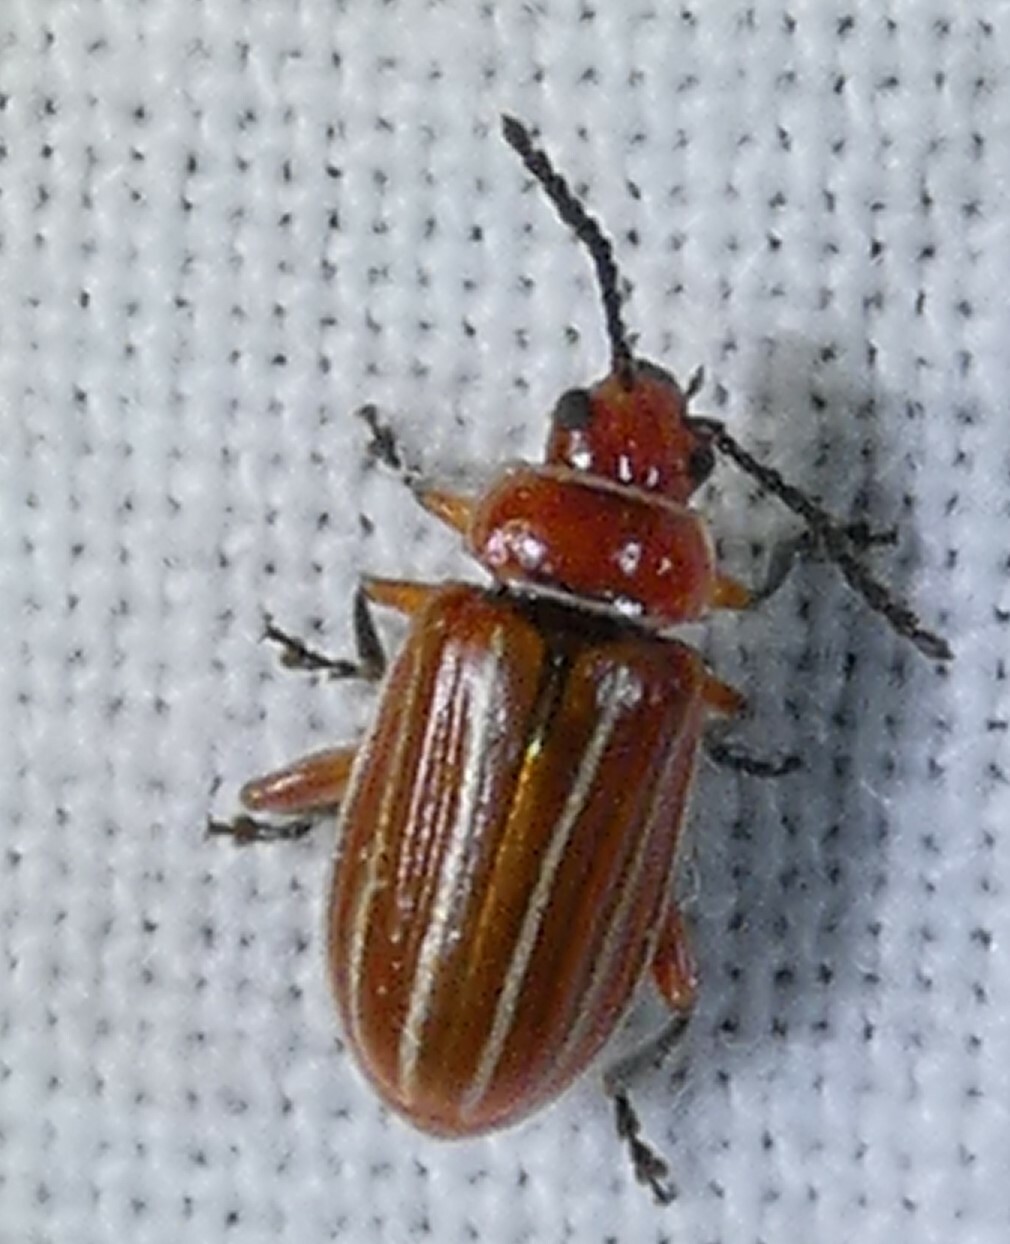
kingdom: Animalia
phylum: Arthropoda
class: Insecta
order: Coleoptera
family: Chrysomelidae
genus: Disonycha
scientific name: Disonycha conjugata
